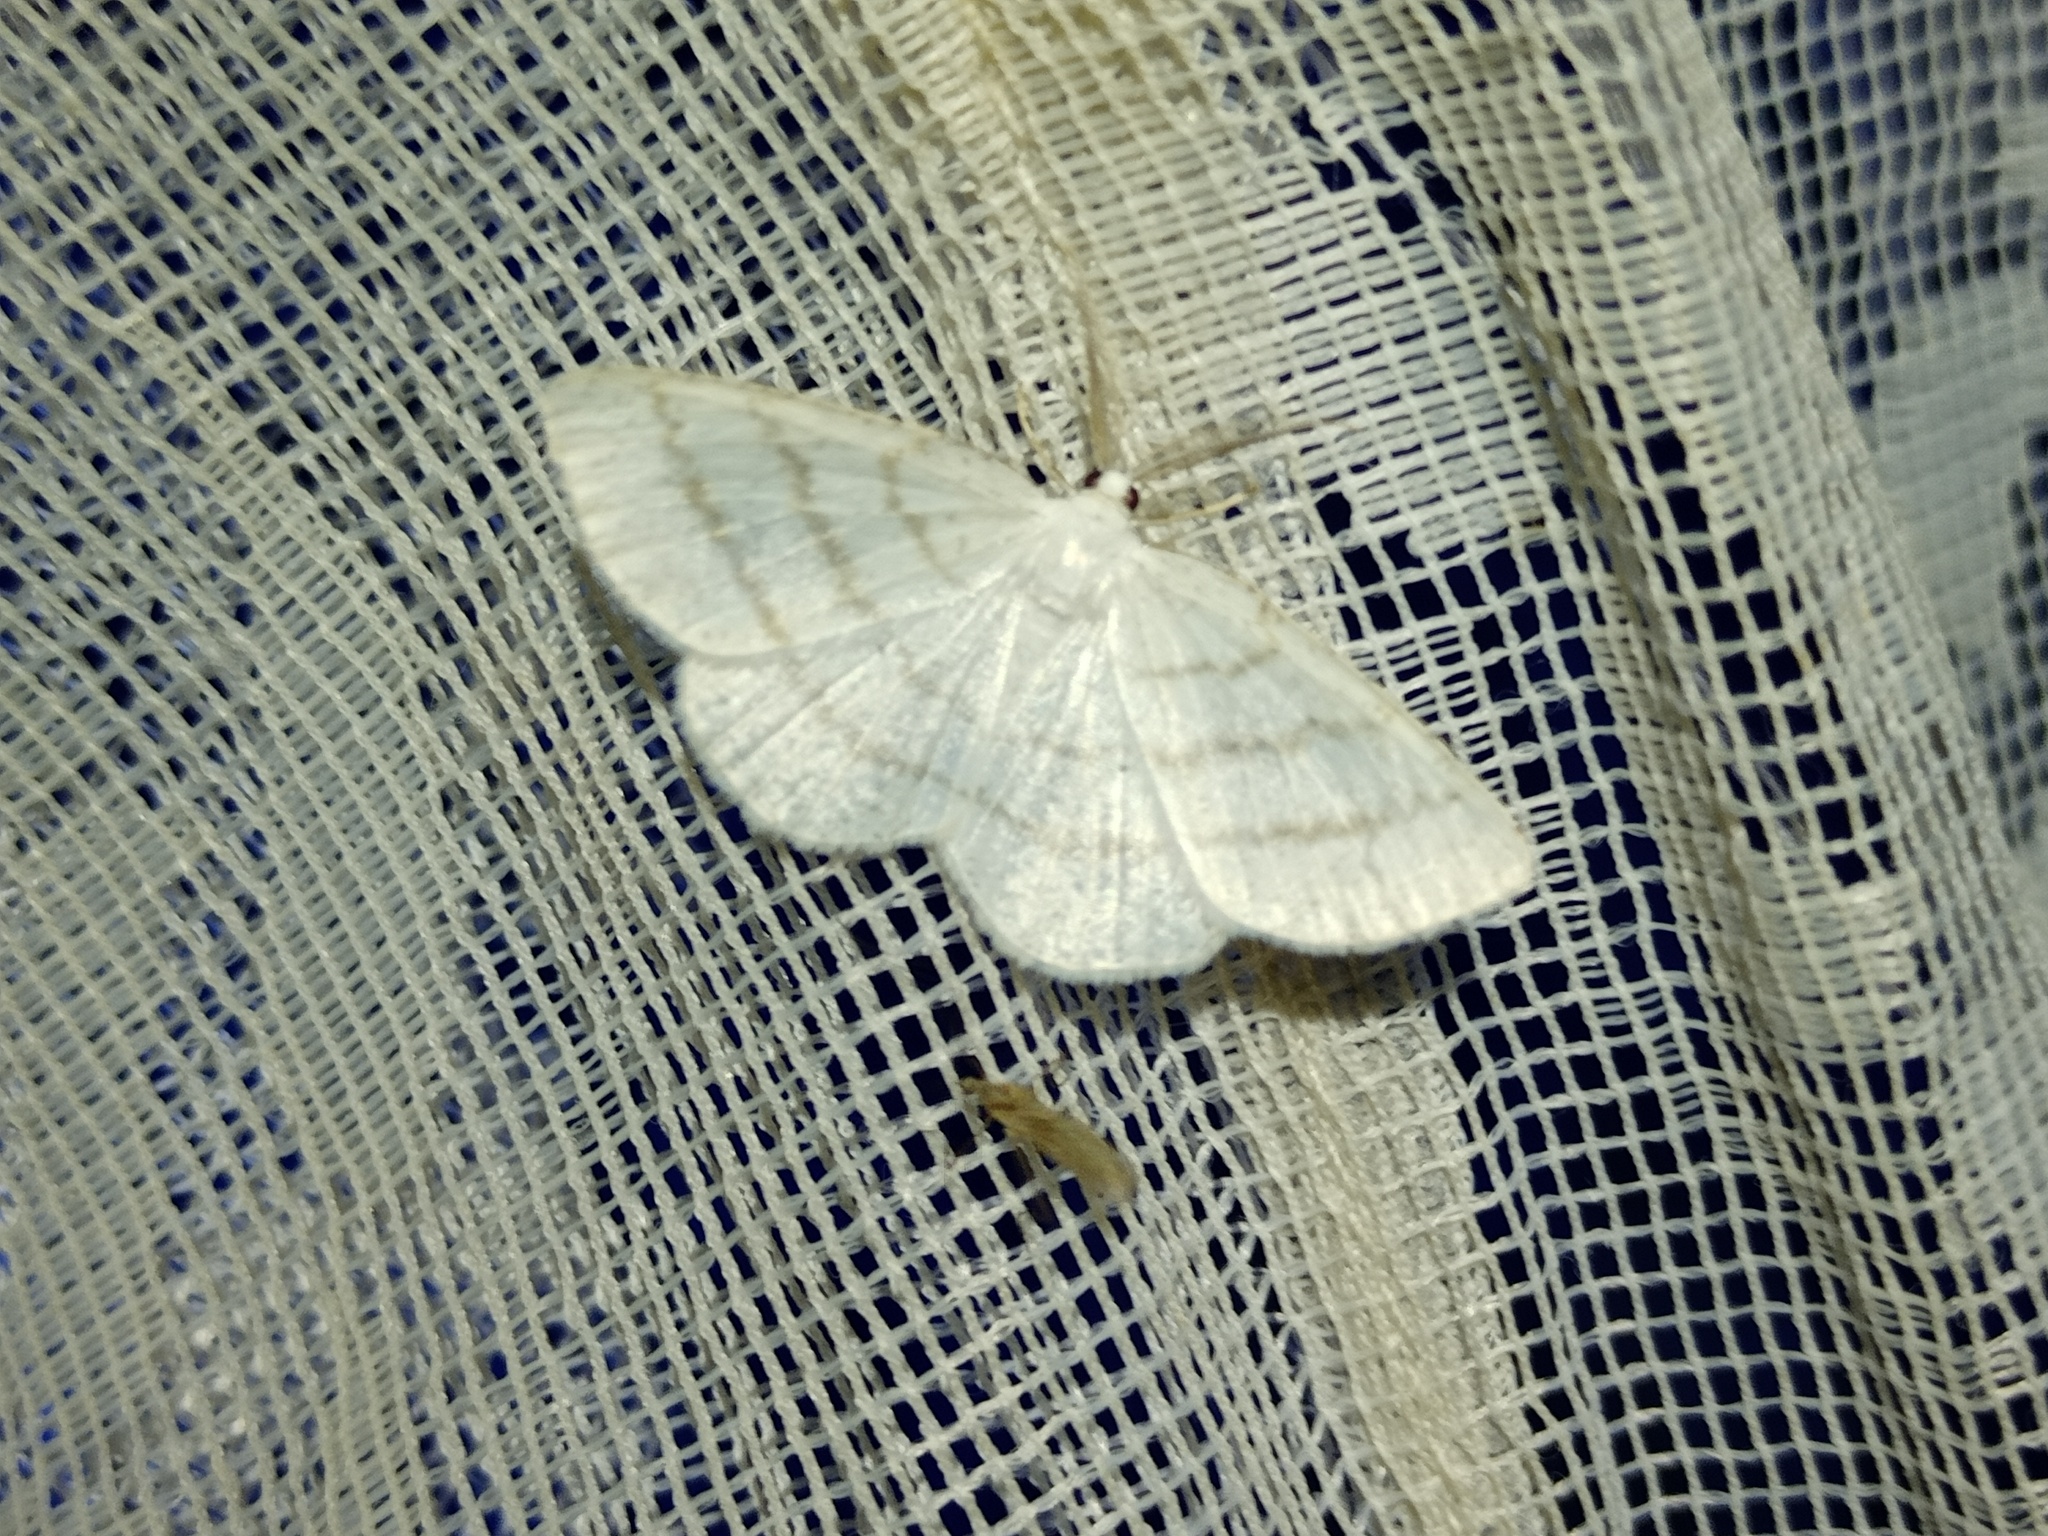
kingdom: Animalia
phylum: Arthropoda
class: Insecta
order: Lepidoptera
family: Geometridae
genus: Cabera
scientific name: Cabera pusaria
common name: Common white wave
